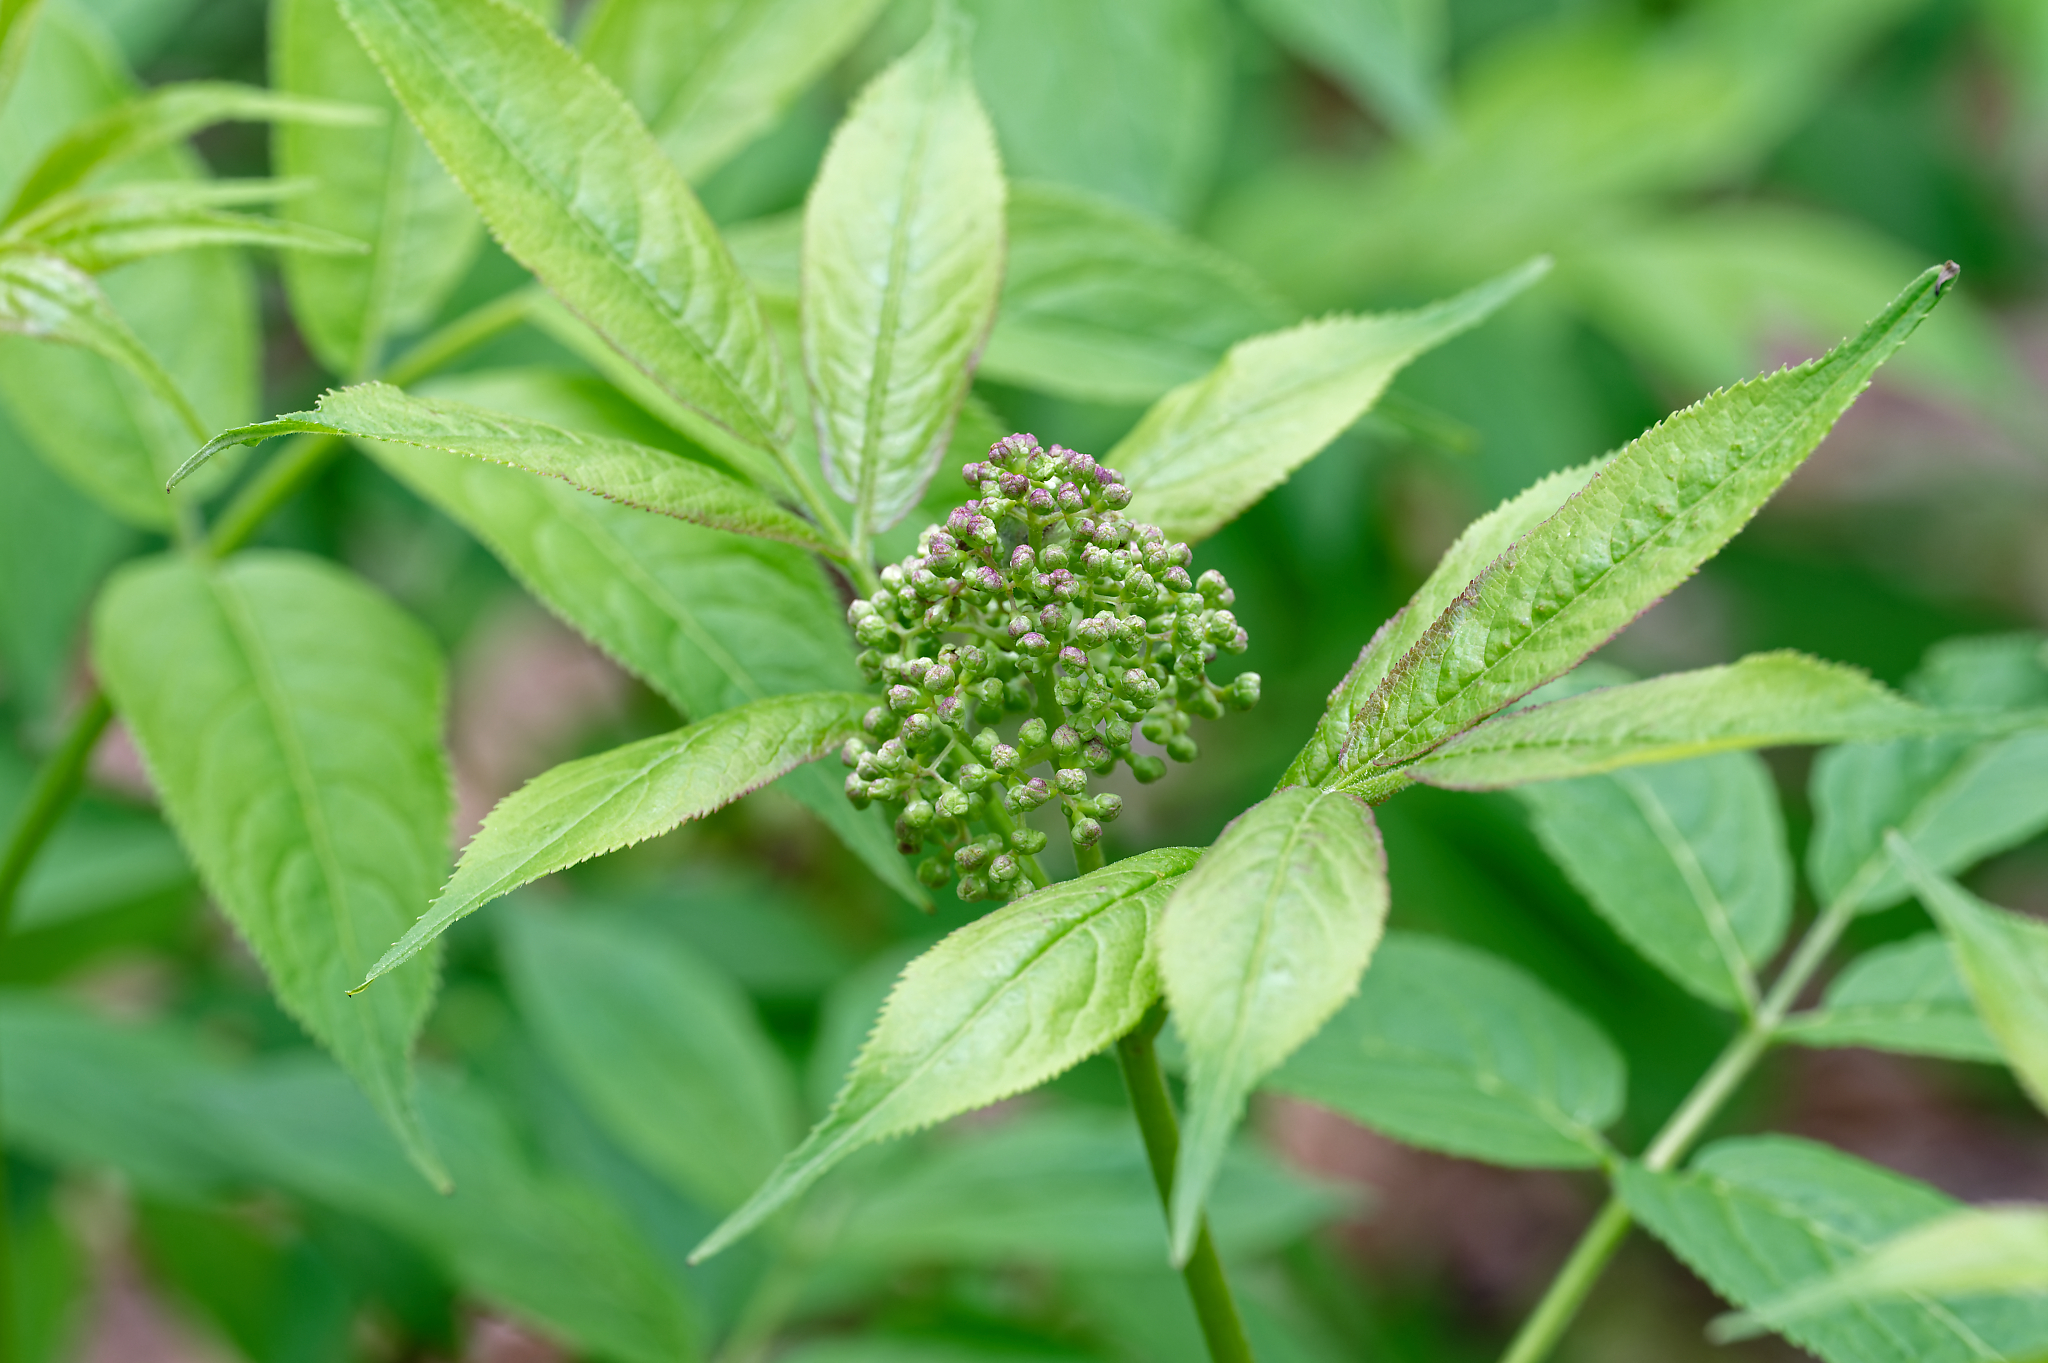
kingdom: Plantae
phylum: Tracheophyta
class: Magnoliopsida
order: Dipsacales
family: Viburnaceae
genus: Sambucus
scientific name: Sambucus racemosa
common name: Red-berried elder
